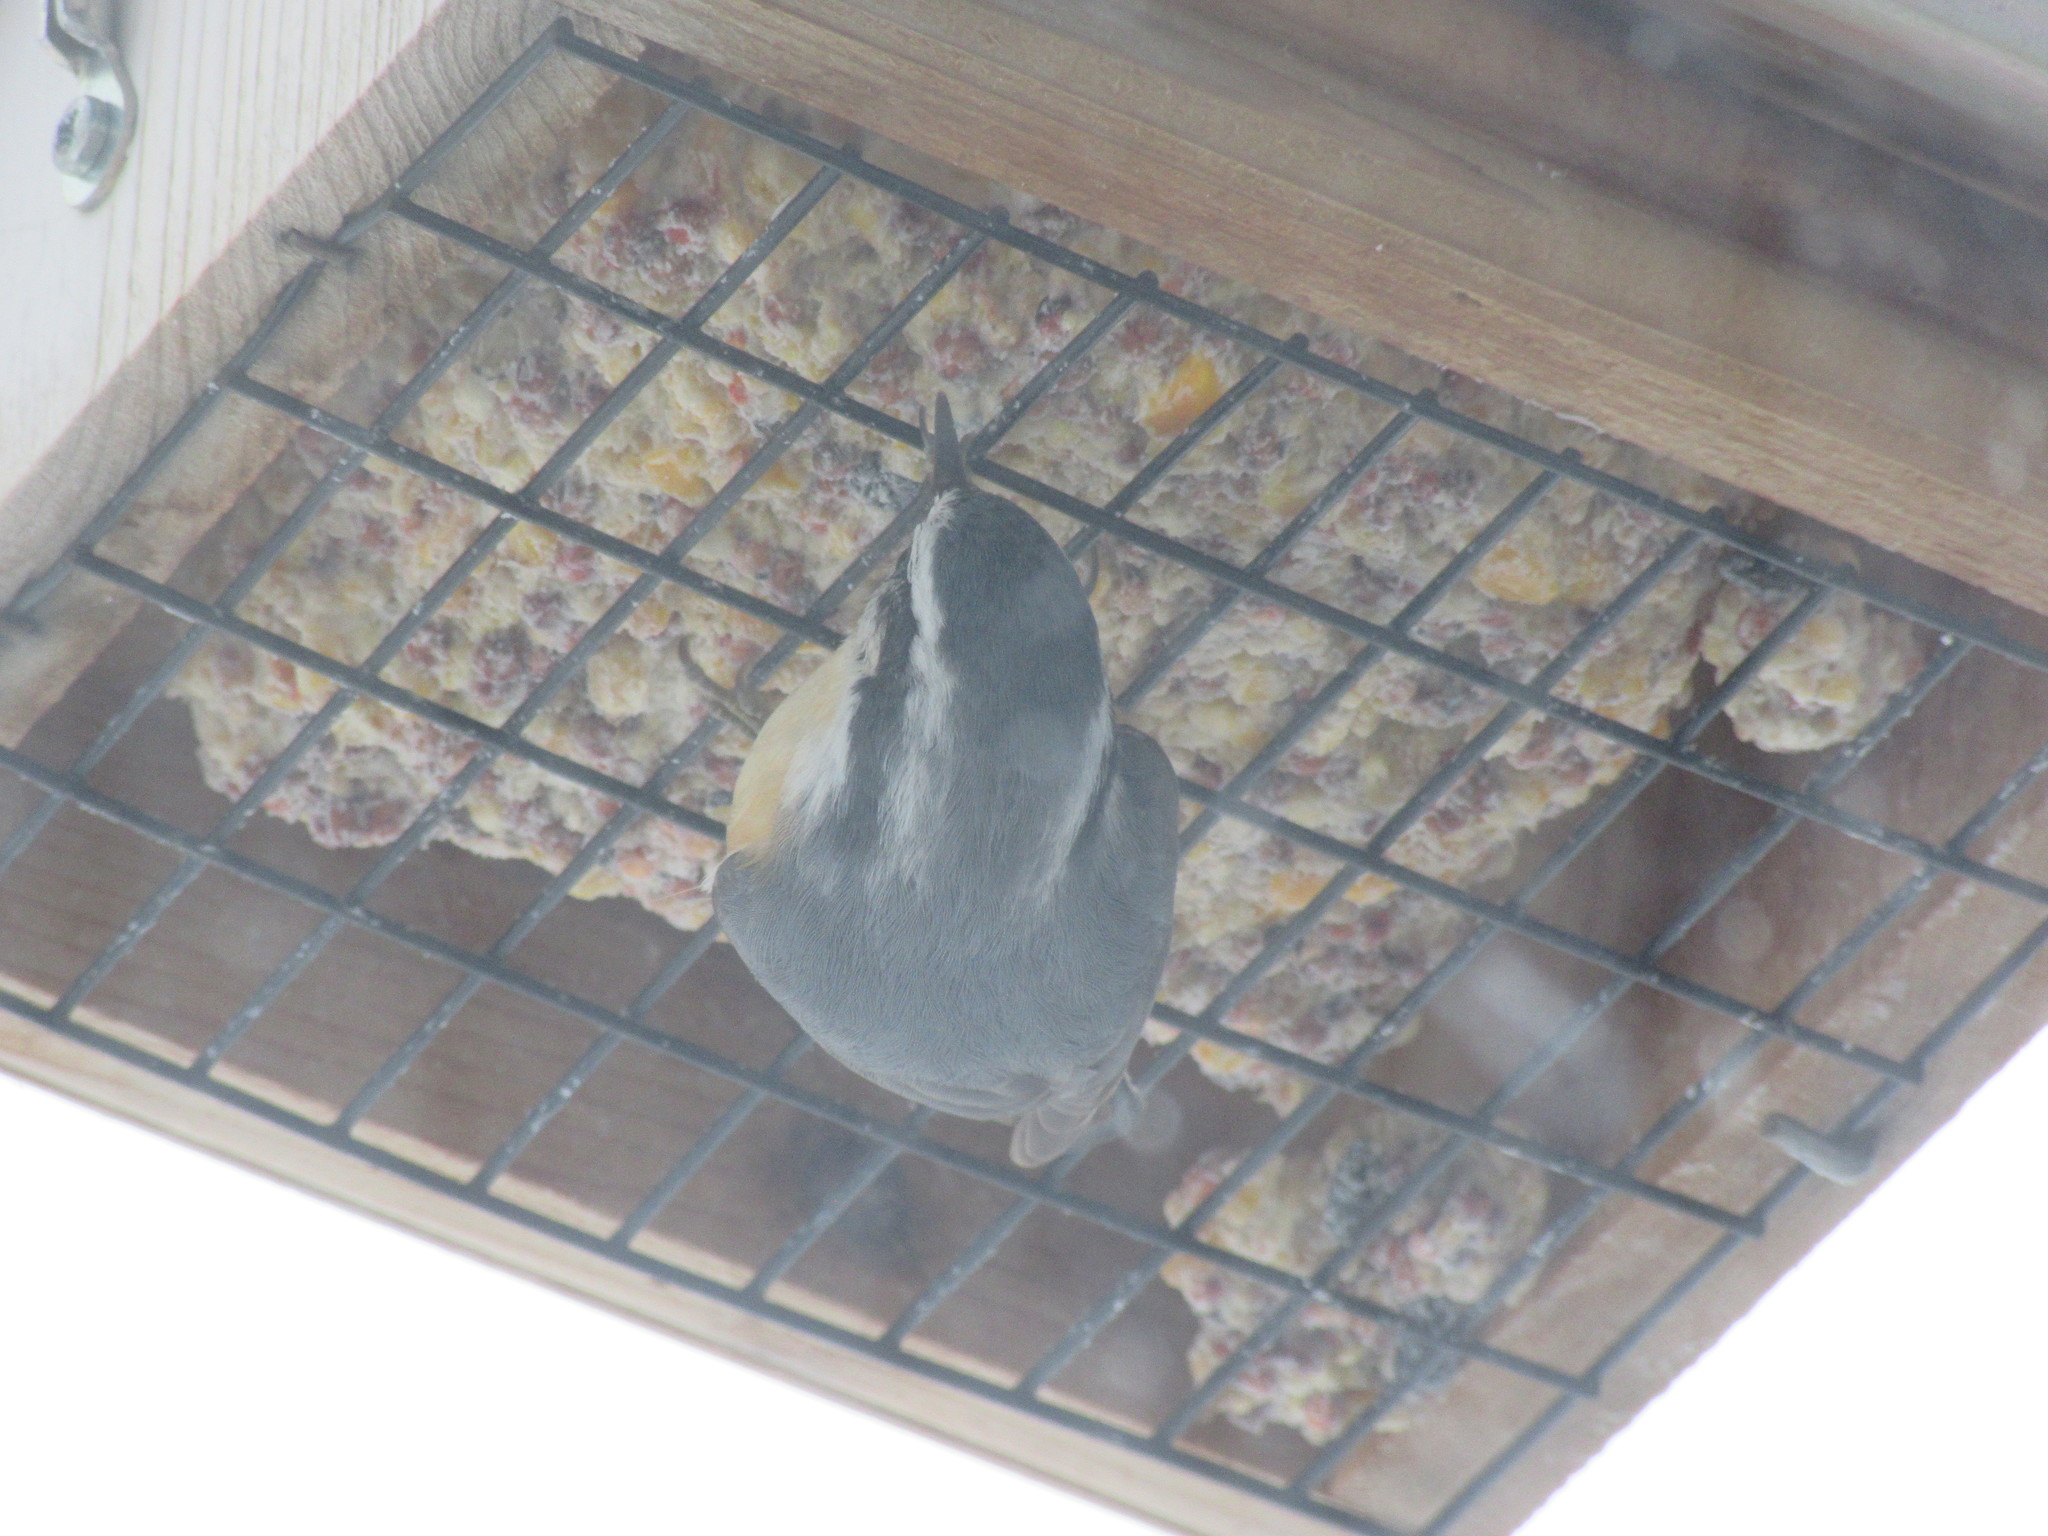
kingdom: Animalia
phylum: Chordata
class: Aves
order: Passeriformes
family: Sittidae
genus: Sitta
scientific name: Sitta canadensis
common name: Red-breasted nuthatch
